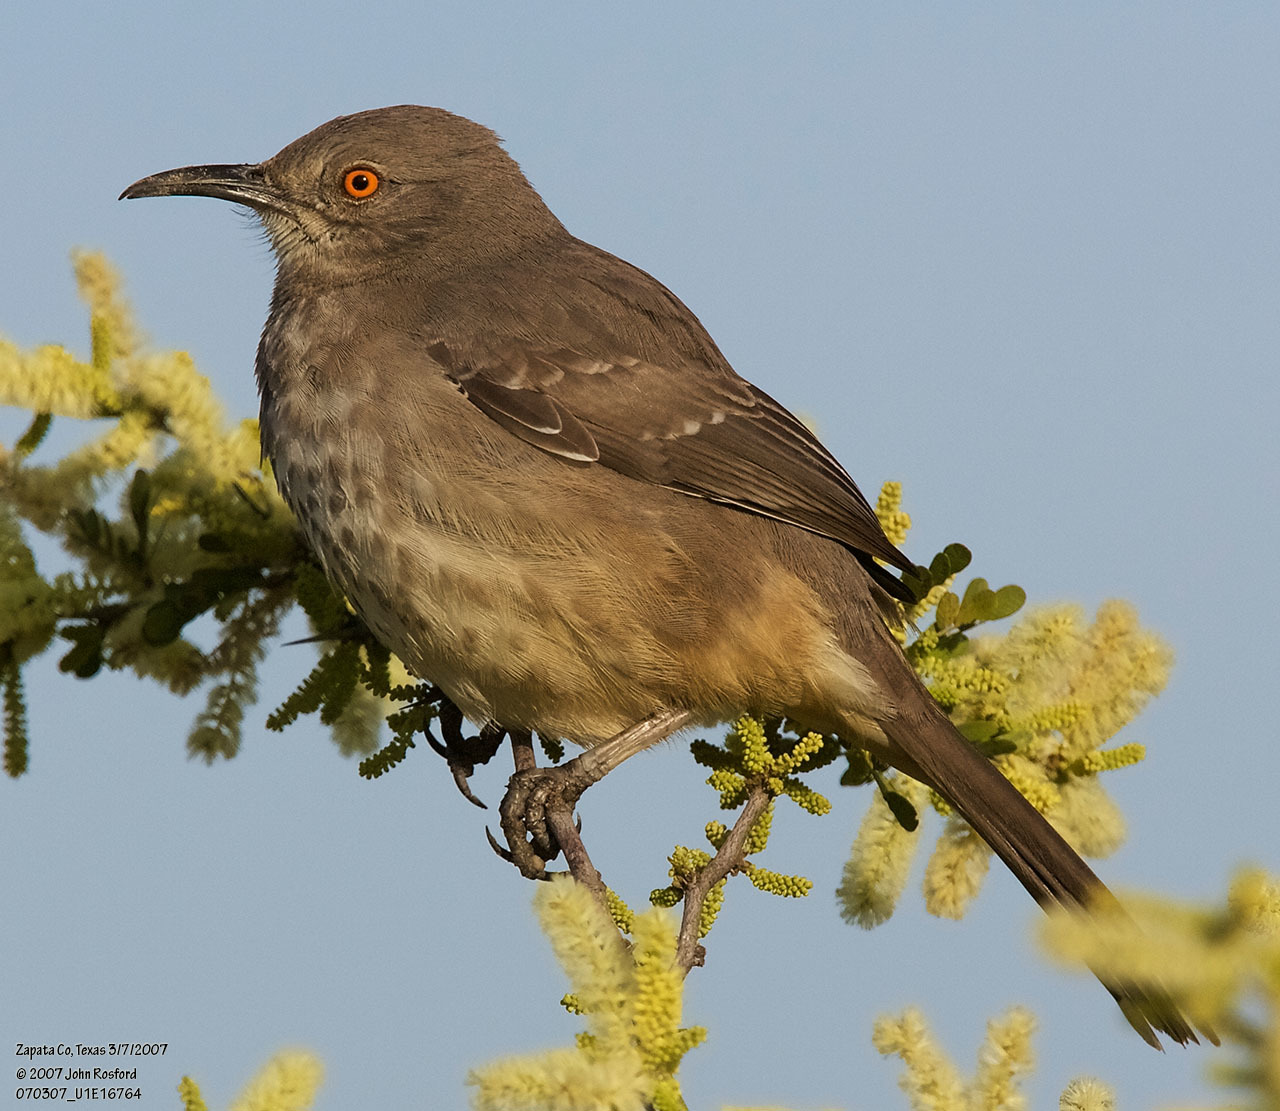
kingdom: Animalia
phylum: Chordata
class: Aves
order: Passeriformes
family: Mimidae
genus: Toxostoma
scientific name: Toxostoma curvirostre
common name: Curve-billed thrasher
